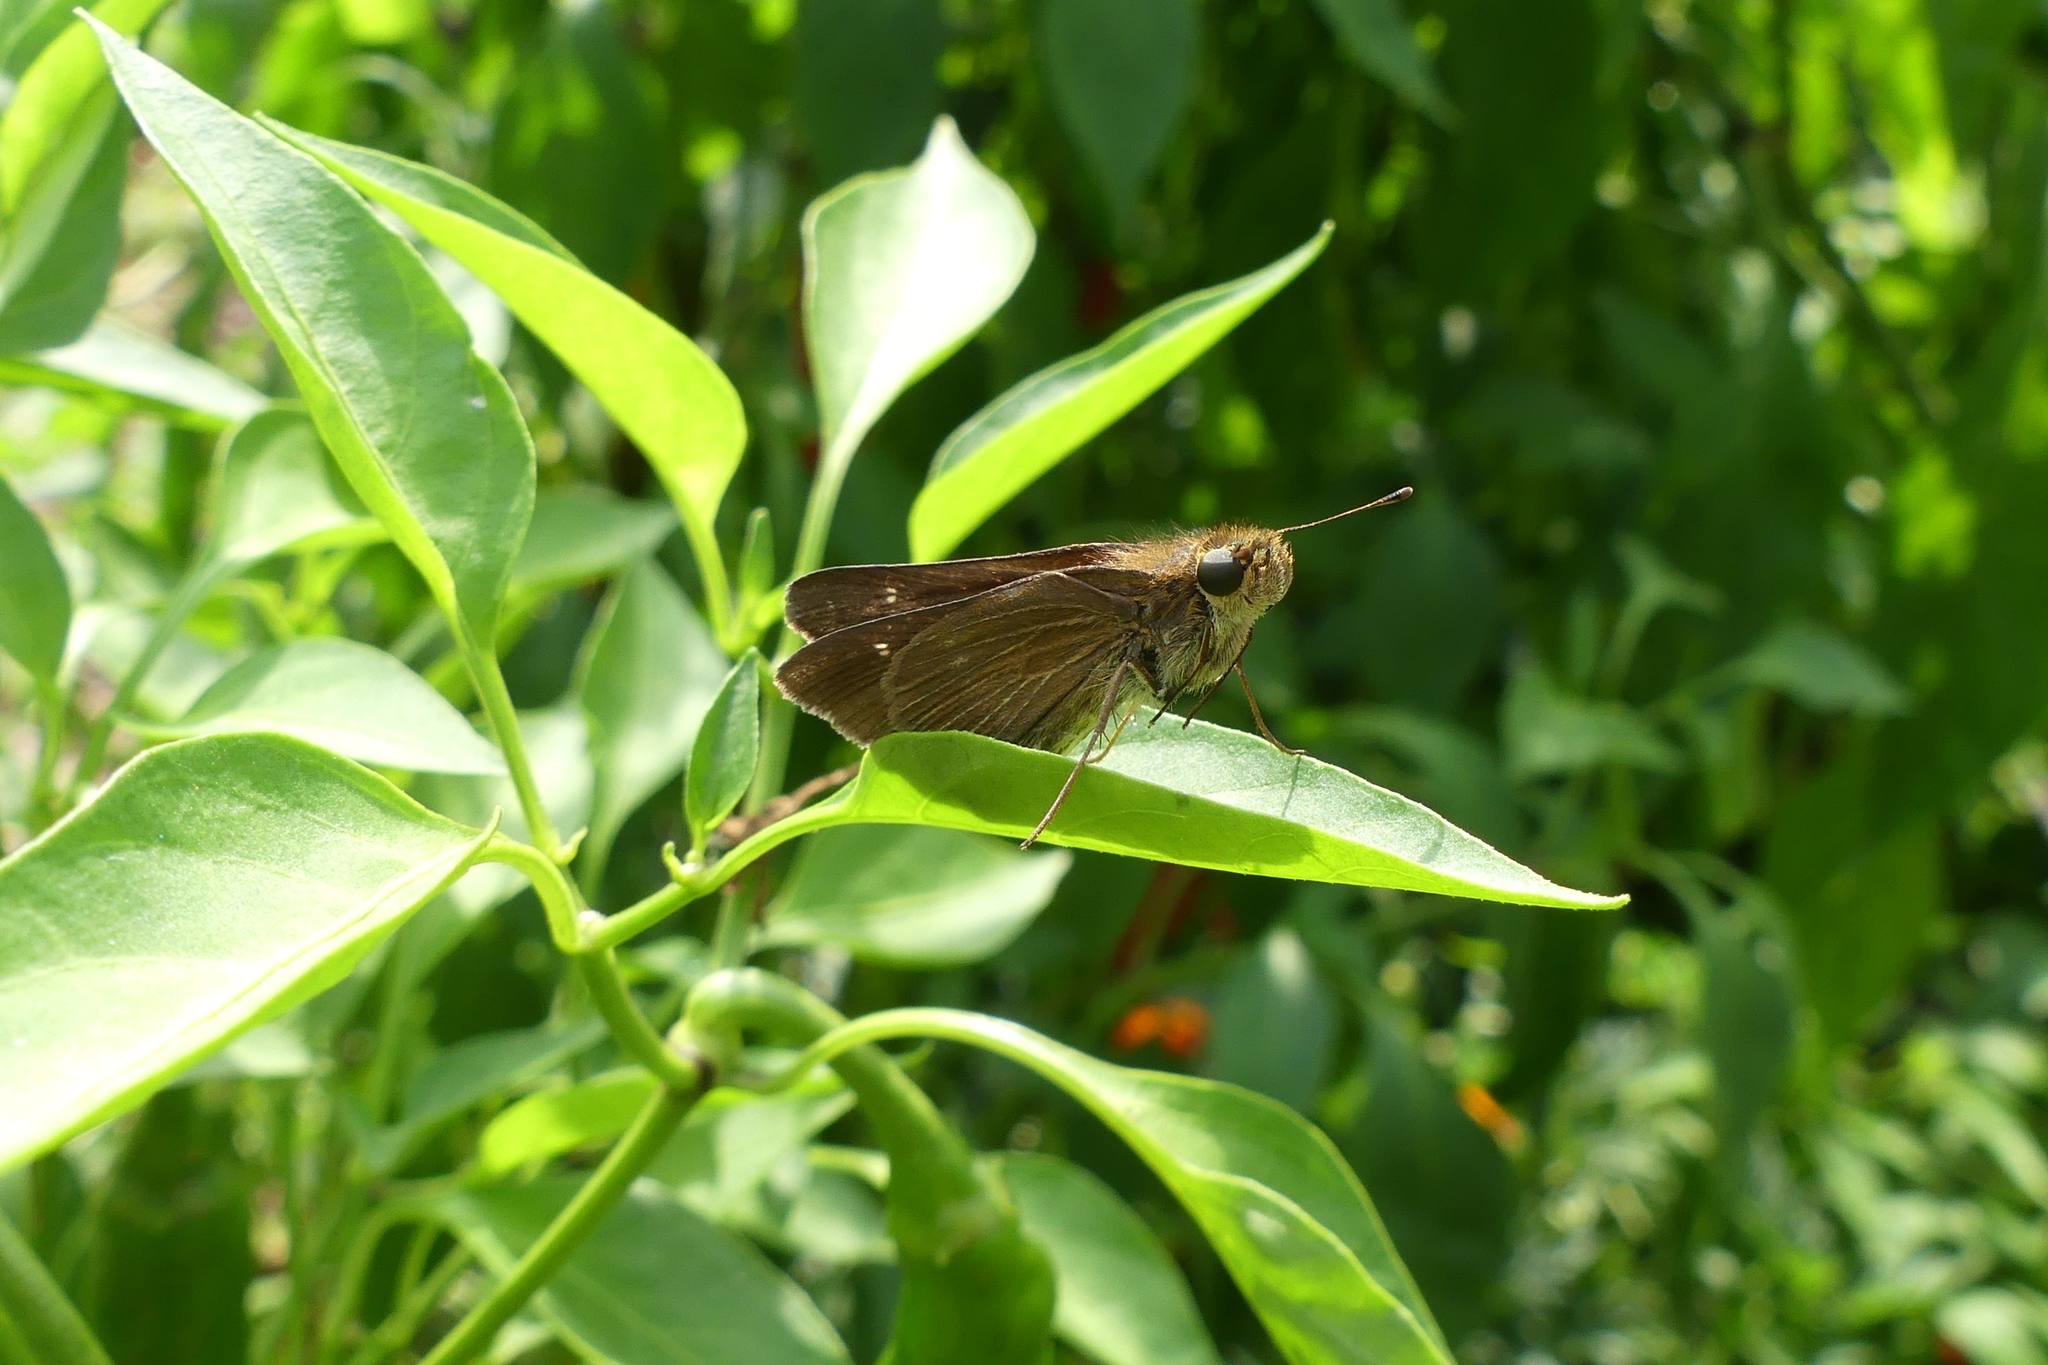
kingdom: Animalia
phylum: Arthropoda
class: Insecta
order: Lepidoptera
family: Hesperiidae
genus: Panoquina
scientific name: Panoquina ocola
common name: Ocola skipper
